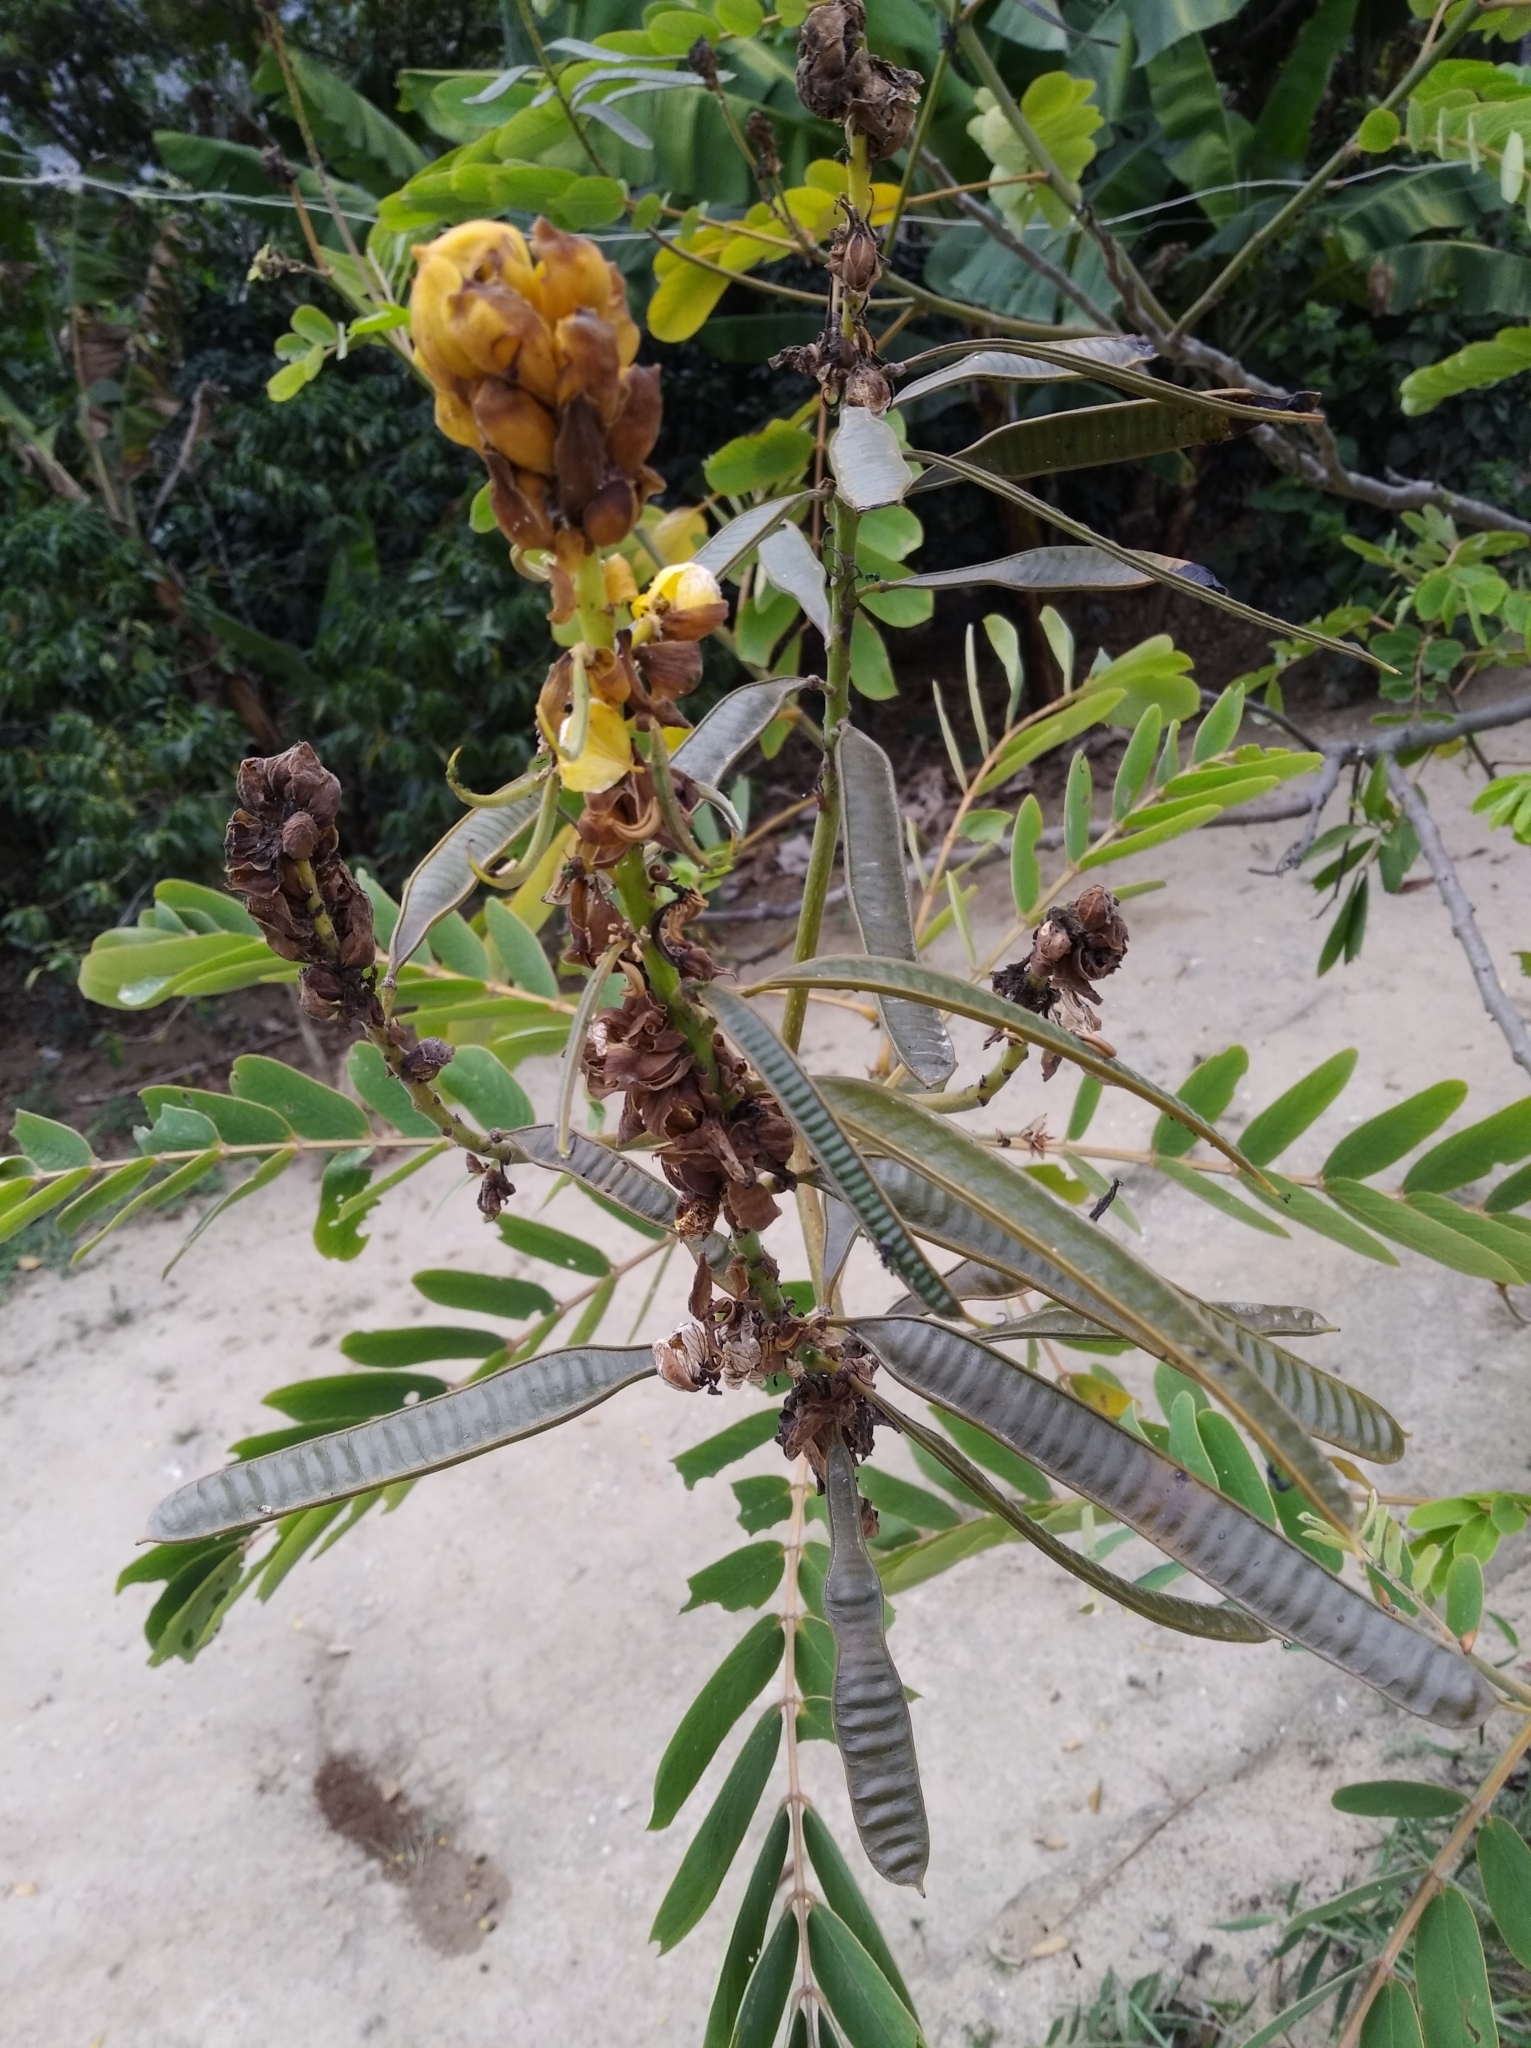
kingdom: Plantae
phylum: Tracheophyta
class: Magnoliopsida
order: Fabales
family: Fabaceae
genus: Senna
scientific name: Senna alata
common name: Emperor's candlesticks
